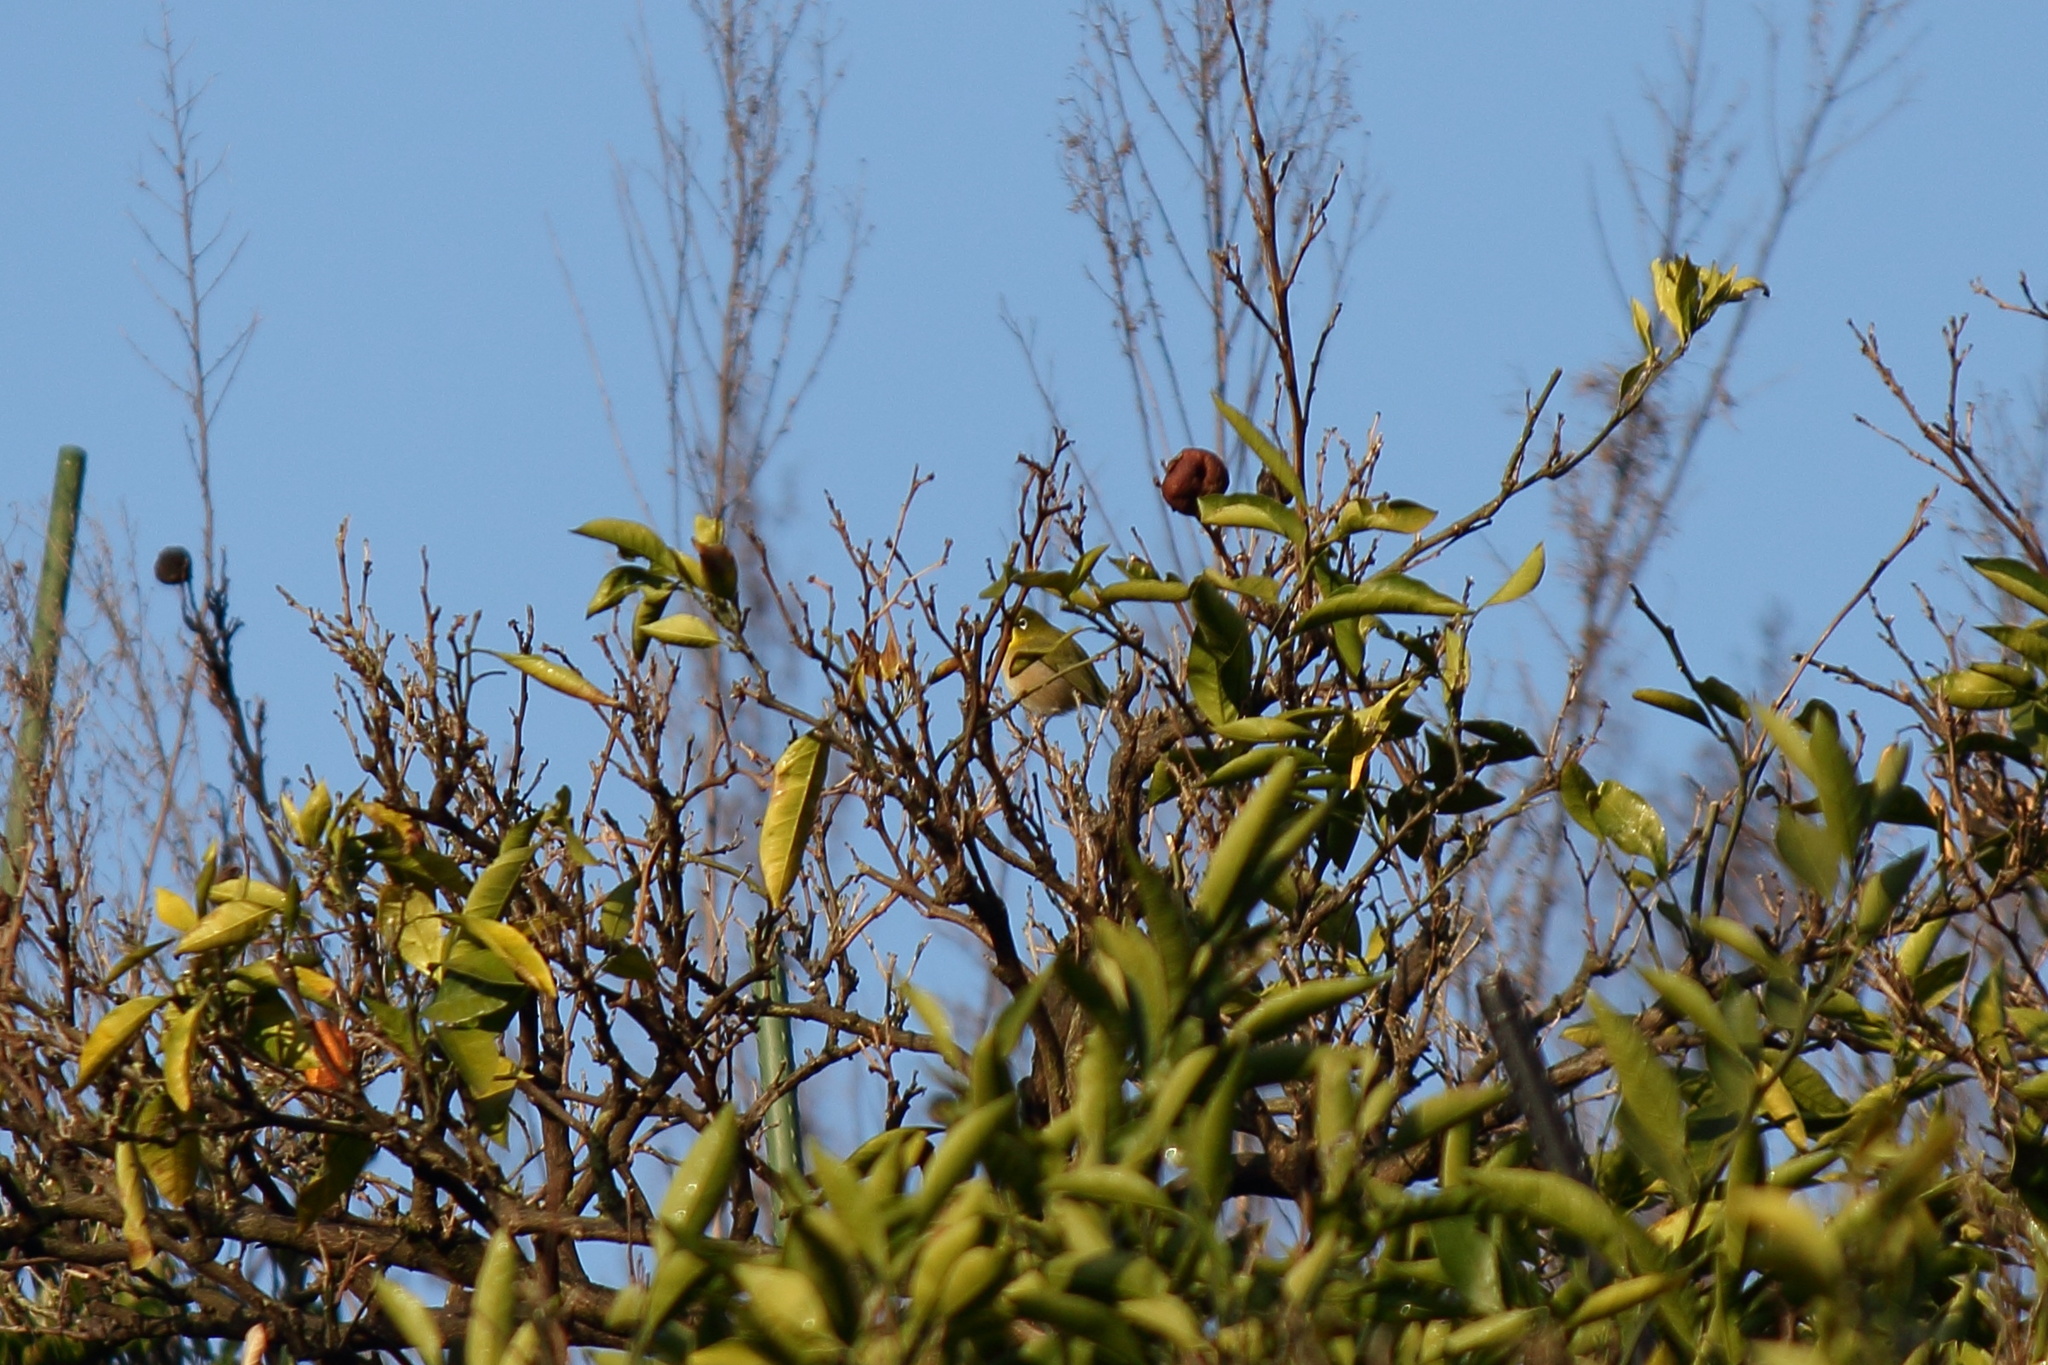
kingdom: Animalia
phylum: Chordata
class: Aves
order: Passeriformes
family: Zosteropidae
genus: Zosterops
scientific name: Zosterops japonicus
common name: Japanese white-eye
